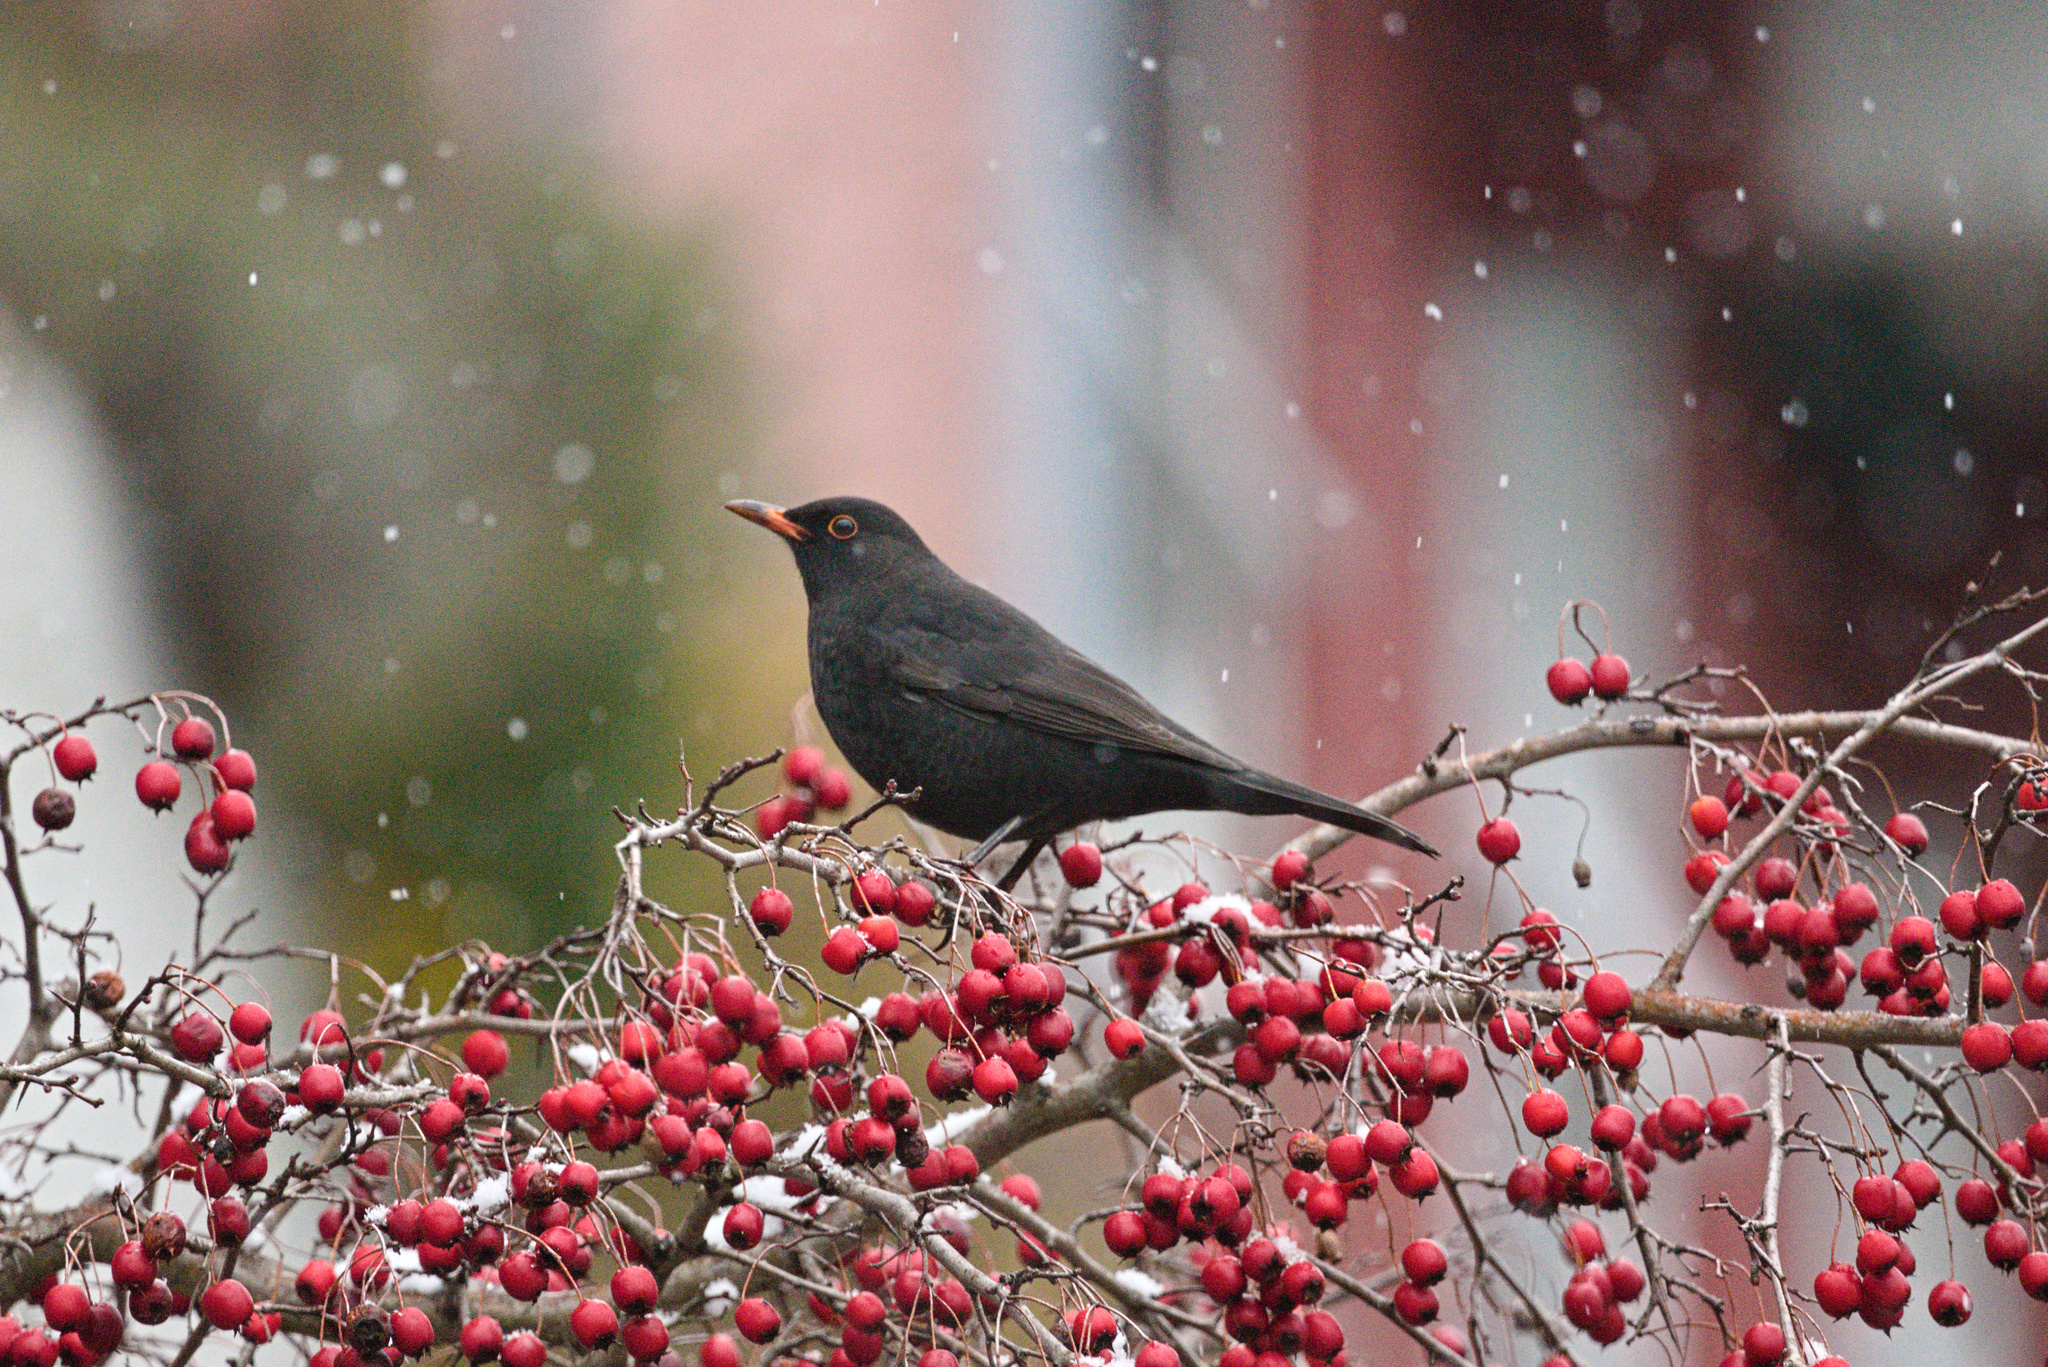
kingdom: Animalia
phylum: Chordata
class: Aves
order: Passeriformes
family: Turdidae
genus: Turdus
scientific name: Turdus merula
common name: Common blackbird
